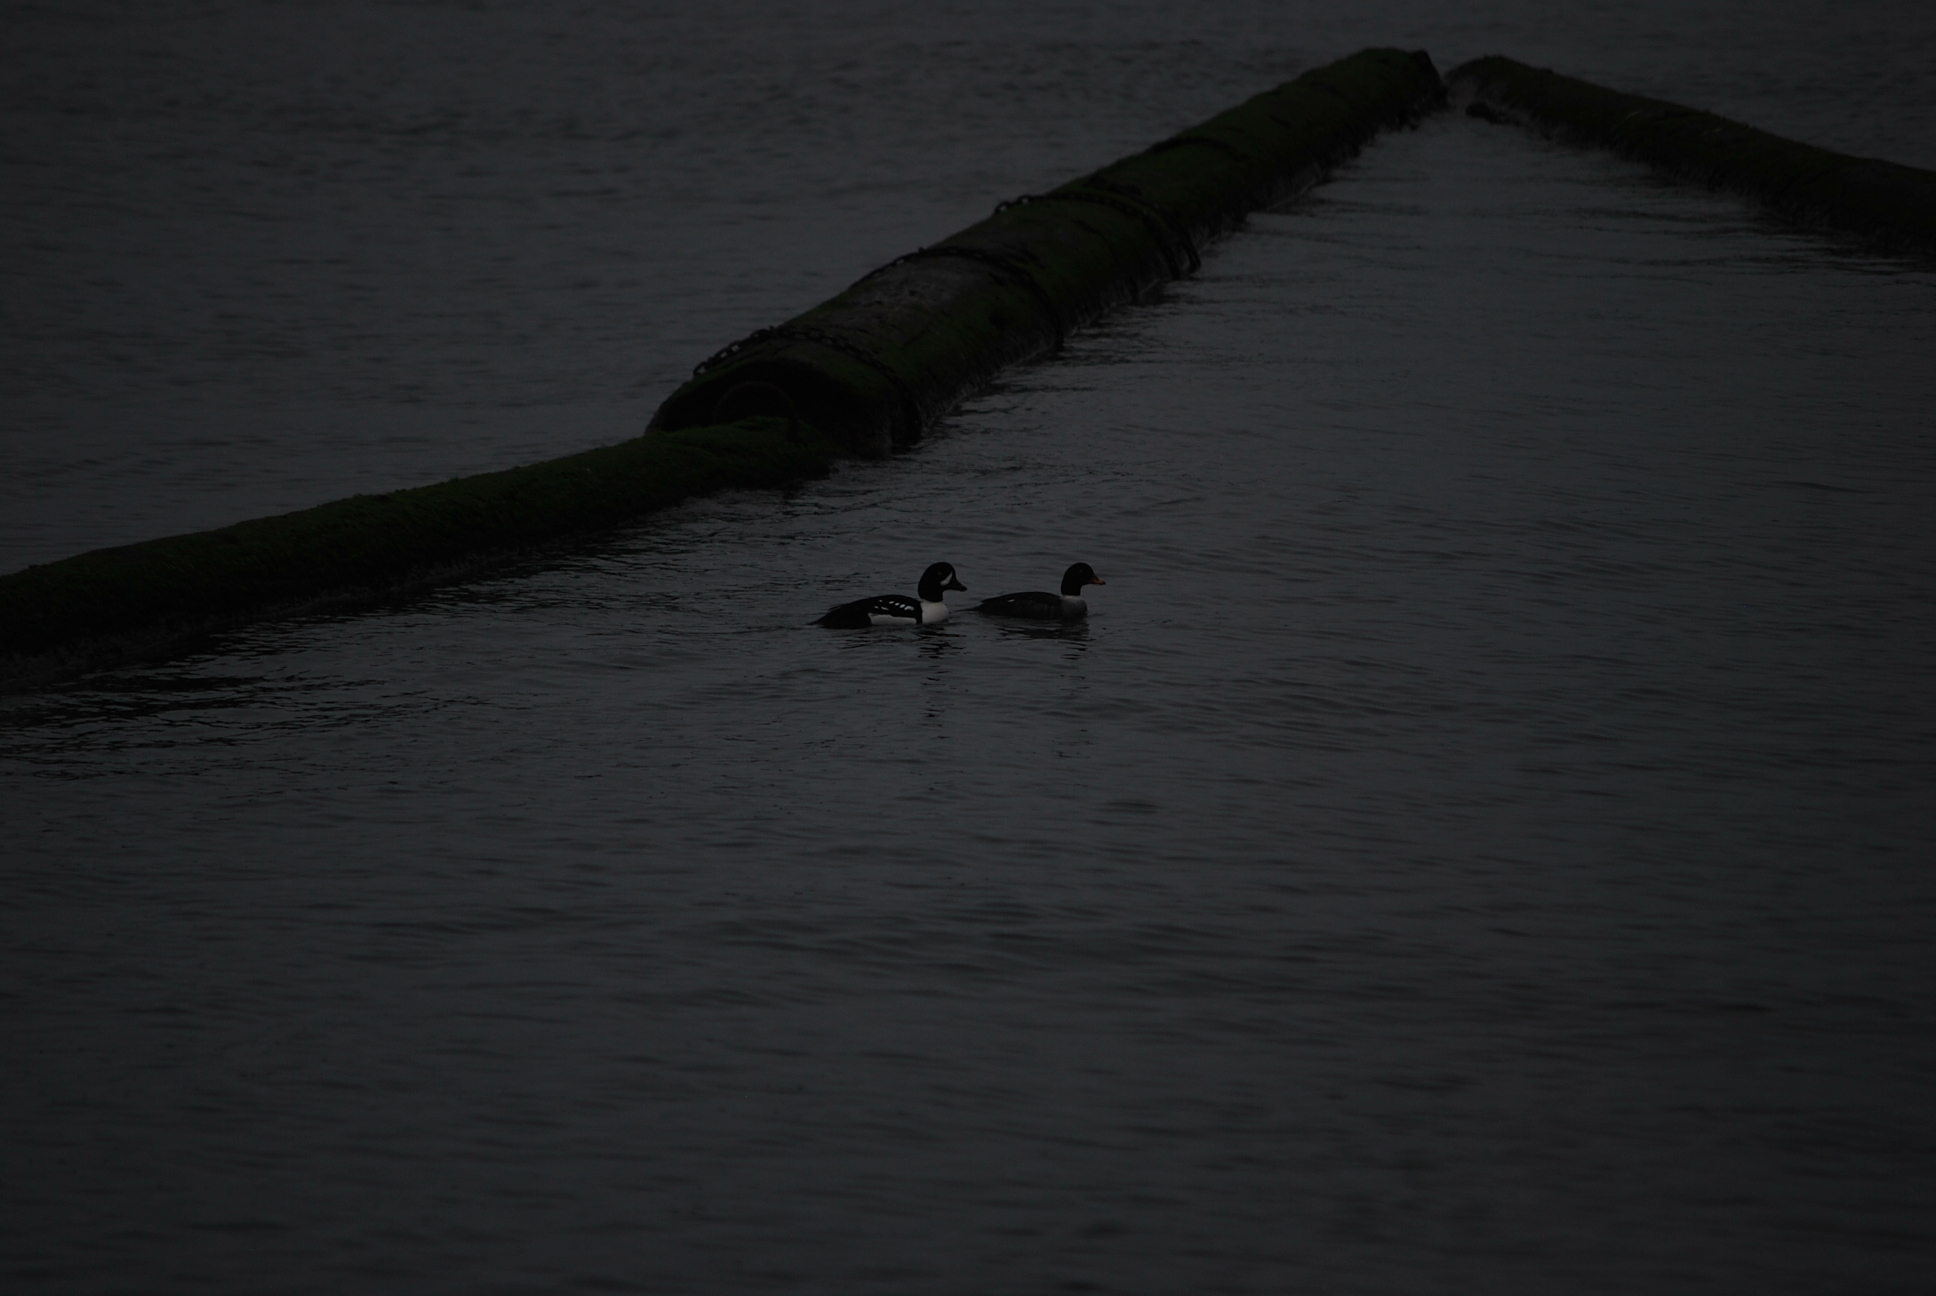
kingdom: Animalia
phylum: Chordata
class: Aves
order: Anseriformes
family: Anatidae
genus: Bucephala
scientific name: Bucephala islandica
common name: Barrow's goldeneye
